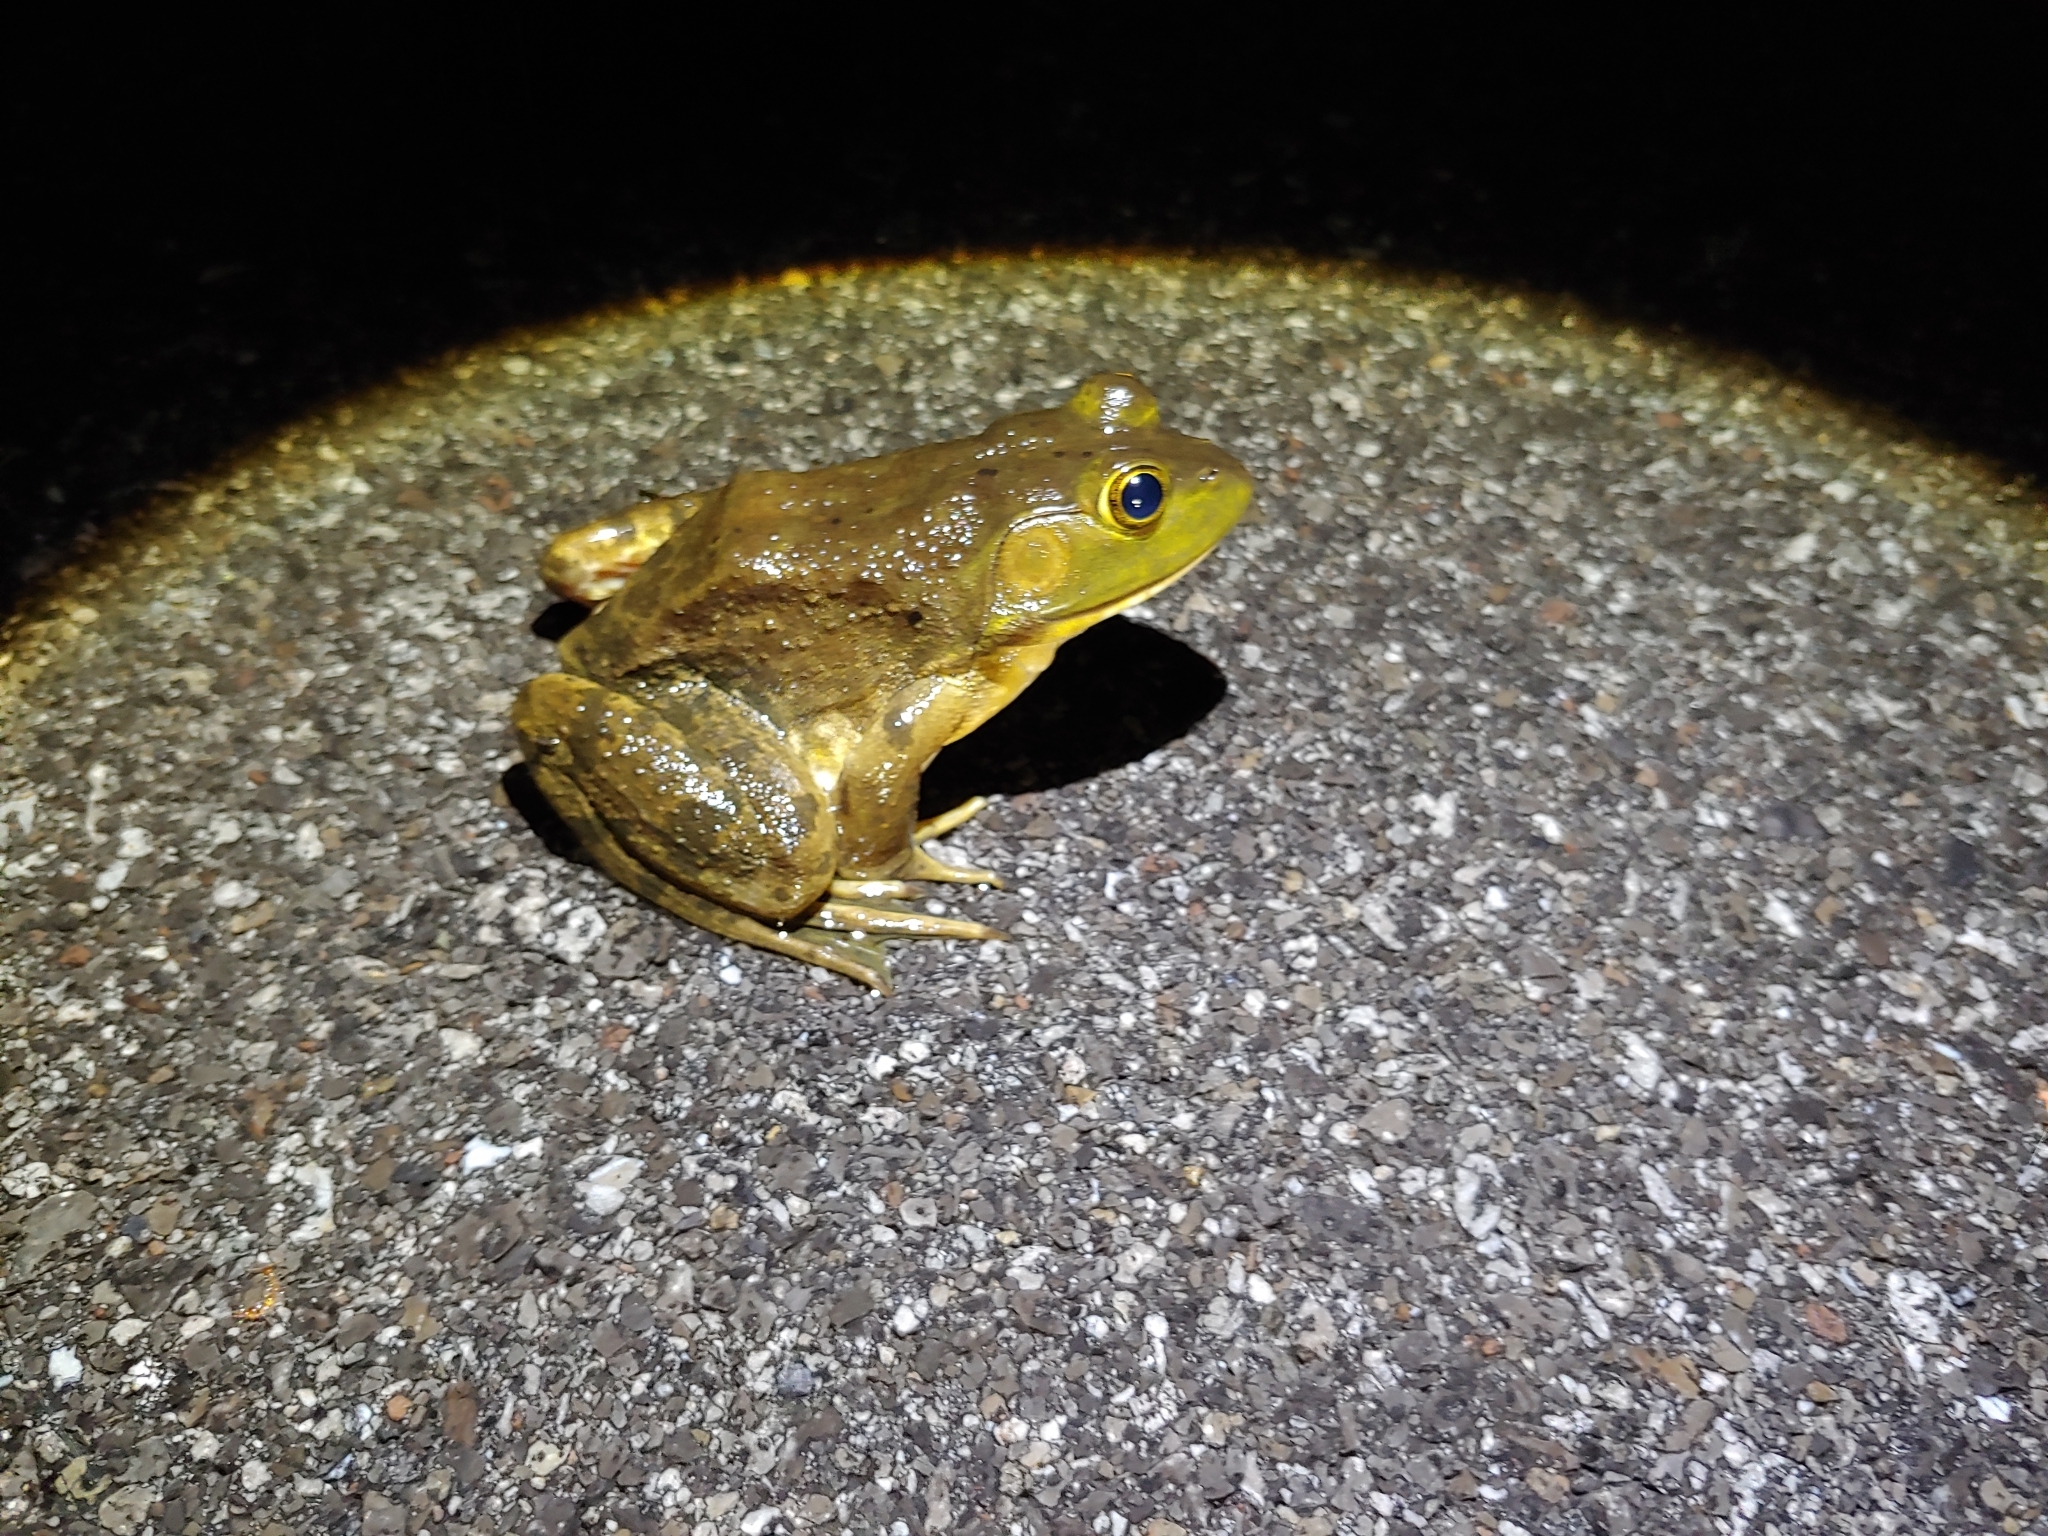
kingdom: Animalia
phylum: Chordata
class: Amphibia
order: Anura
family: Ranidae
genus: Lithobates
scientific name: Lithobates catesbeianus
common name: American bullfrog
